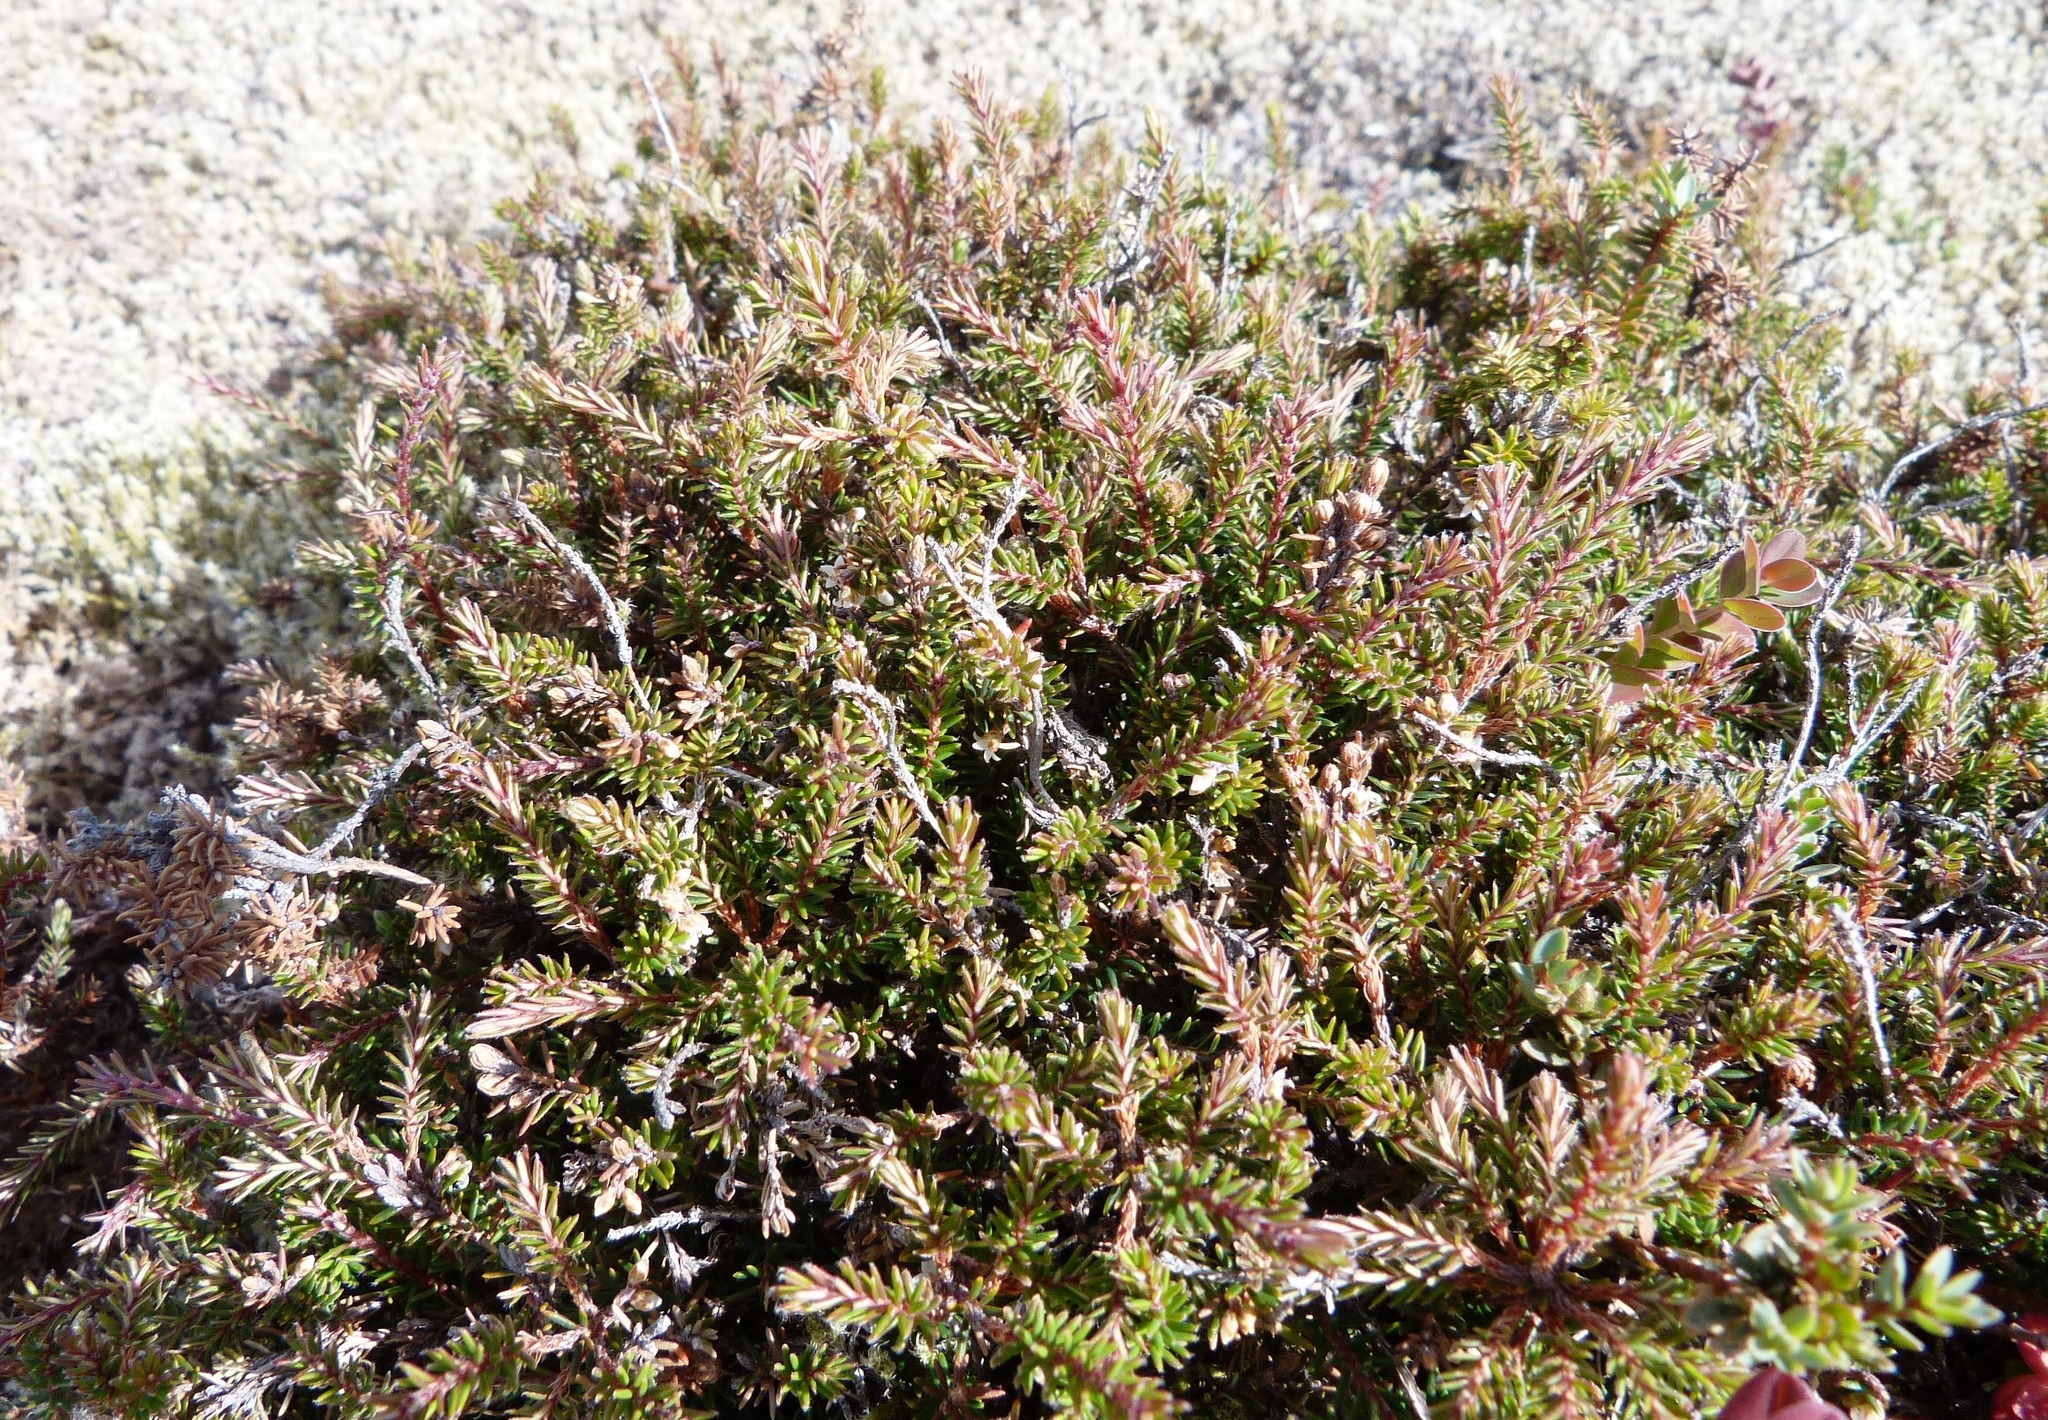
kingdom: Plantae
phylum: Tracheophyta
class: Magnoliopsida
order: Ericales
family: Ericaceae
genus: Androstoma
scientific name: Androstoma empetrifolia
